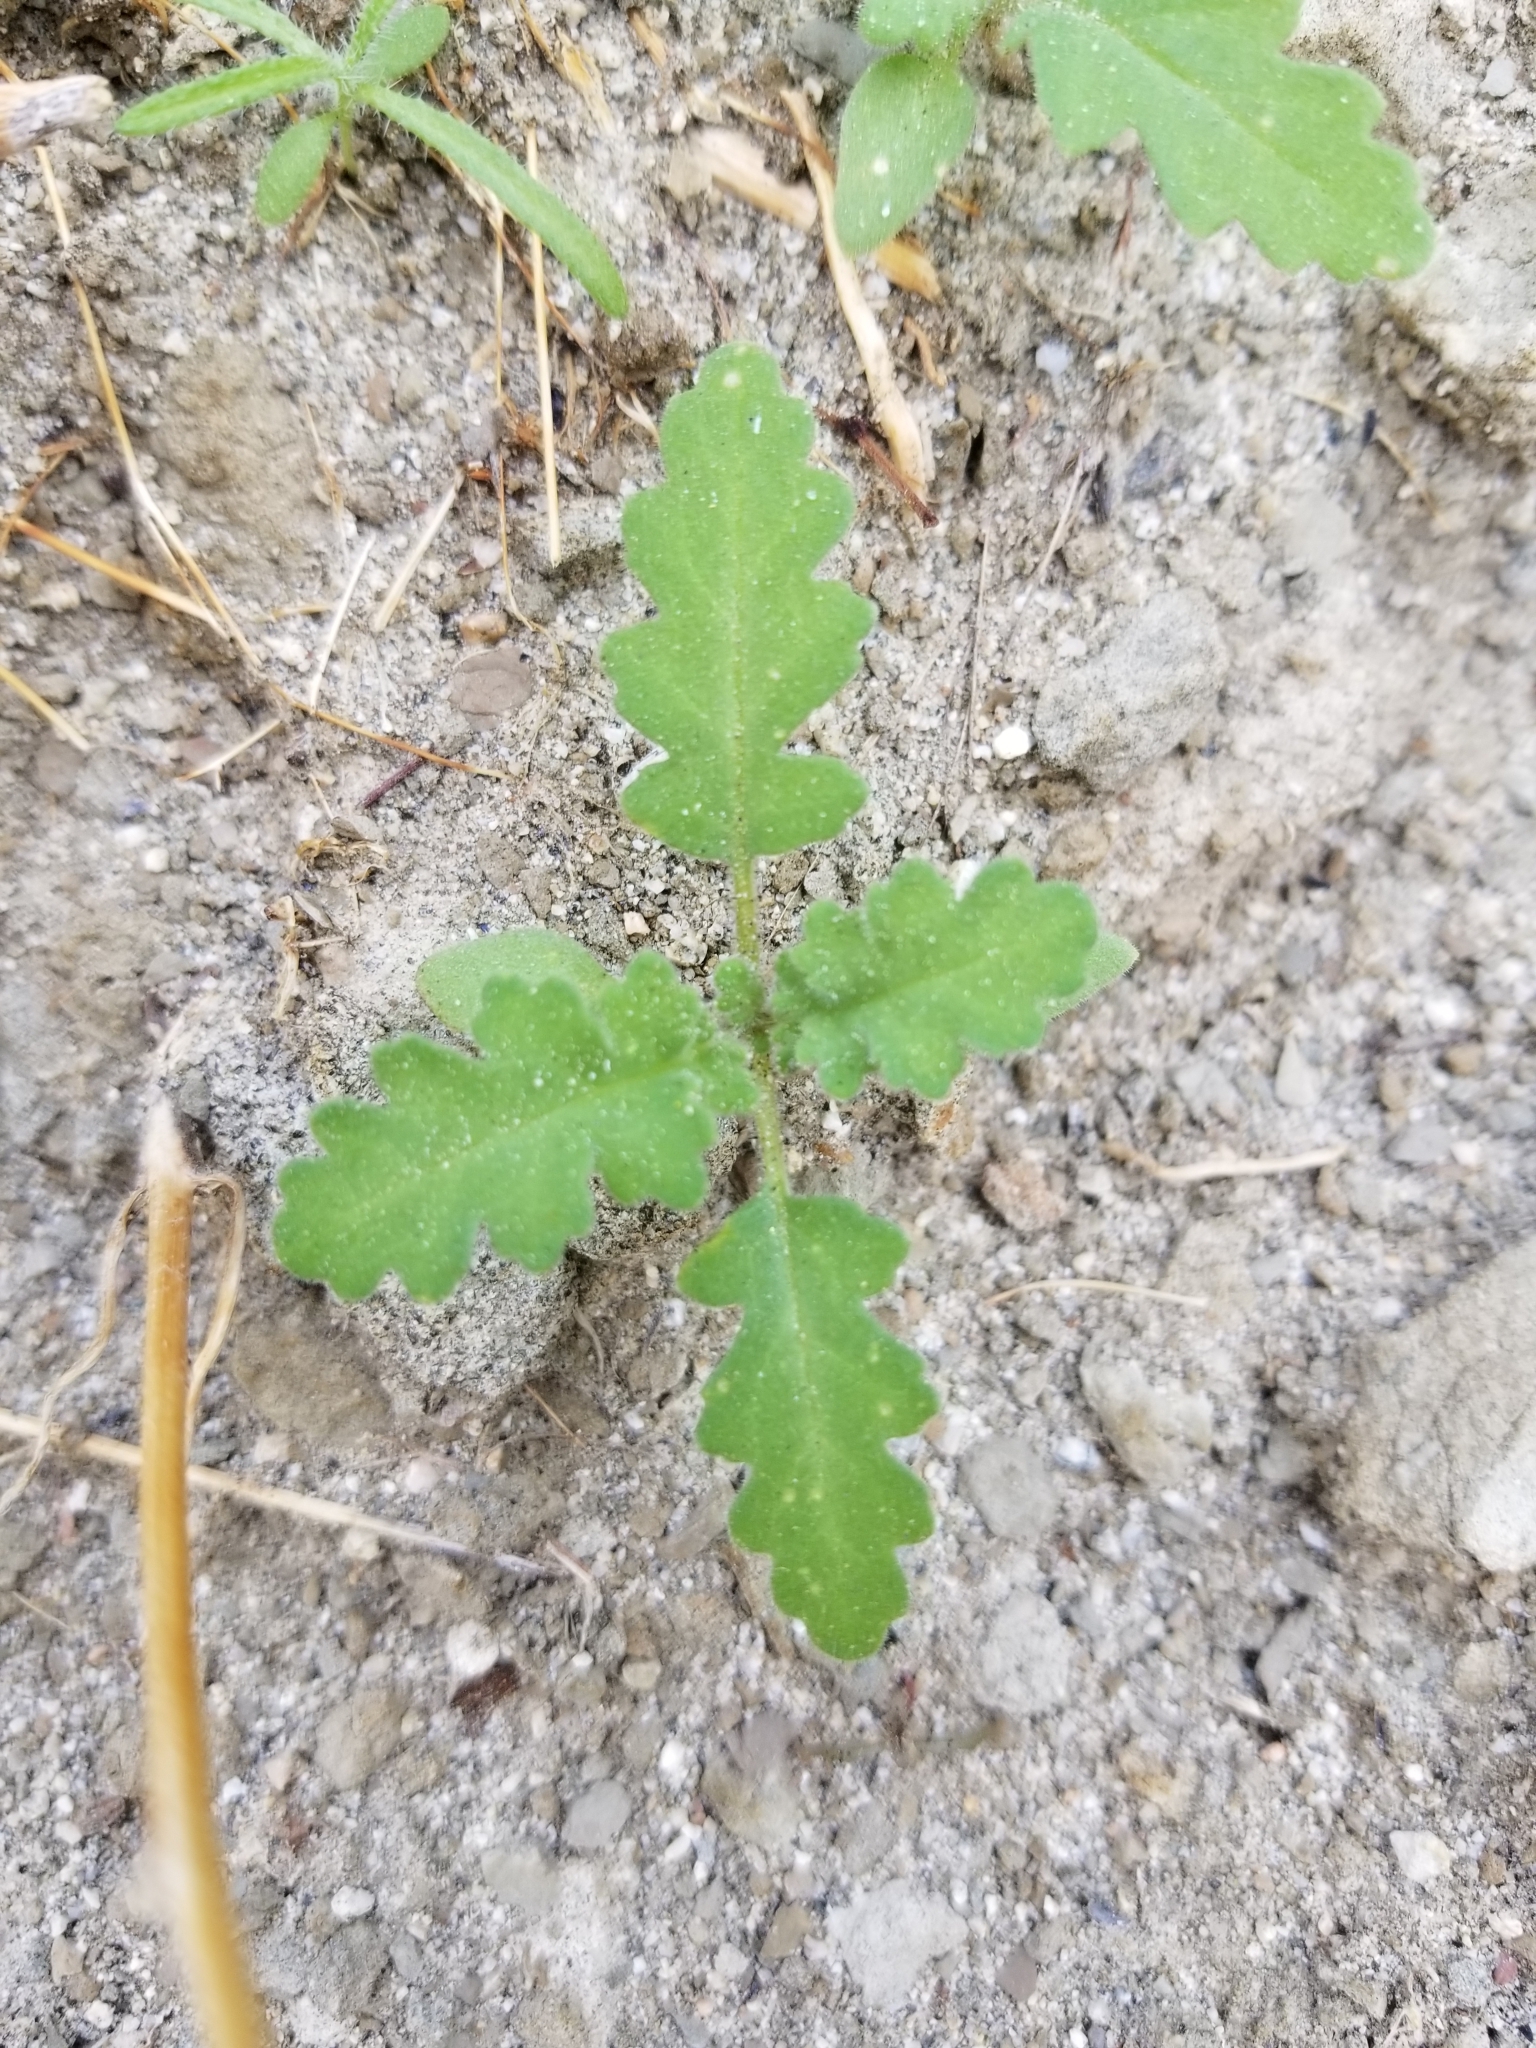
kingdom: Plantae
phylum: Tracheophyta
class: Magnoliopsida
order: Boraginales
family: Hydrophyllaceae
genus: Phacelia
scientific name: Phacelia crenulata
